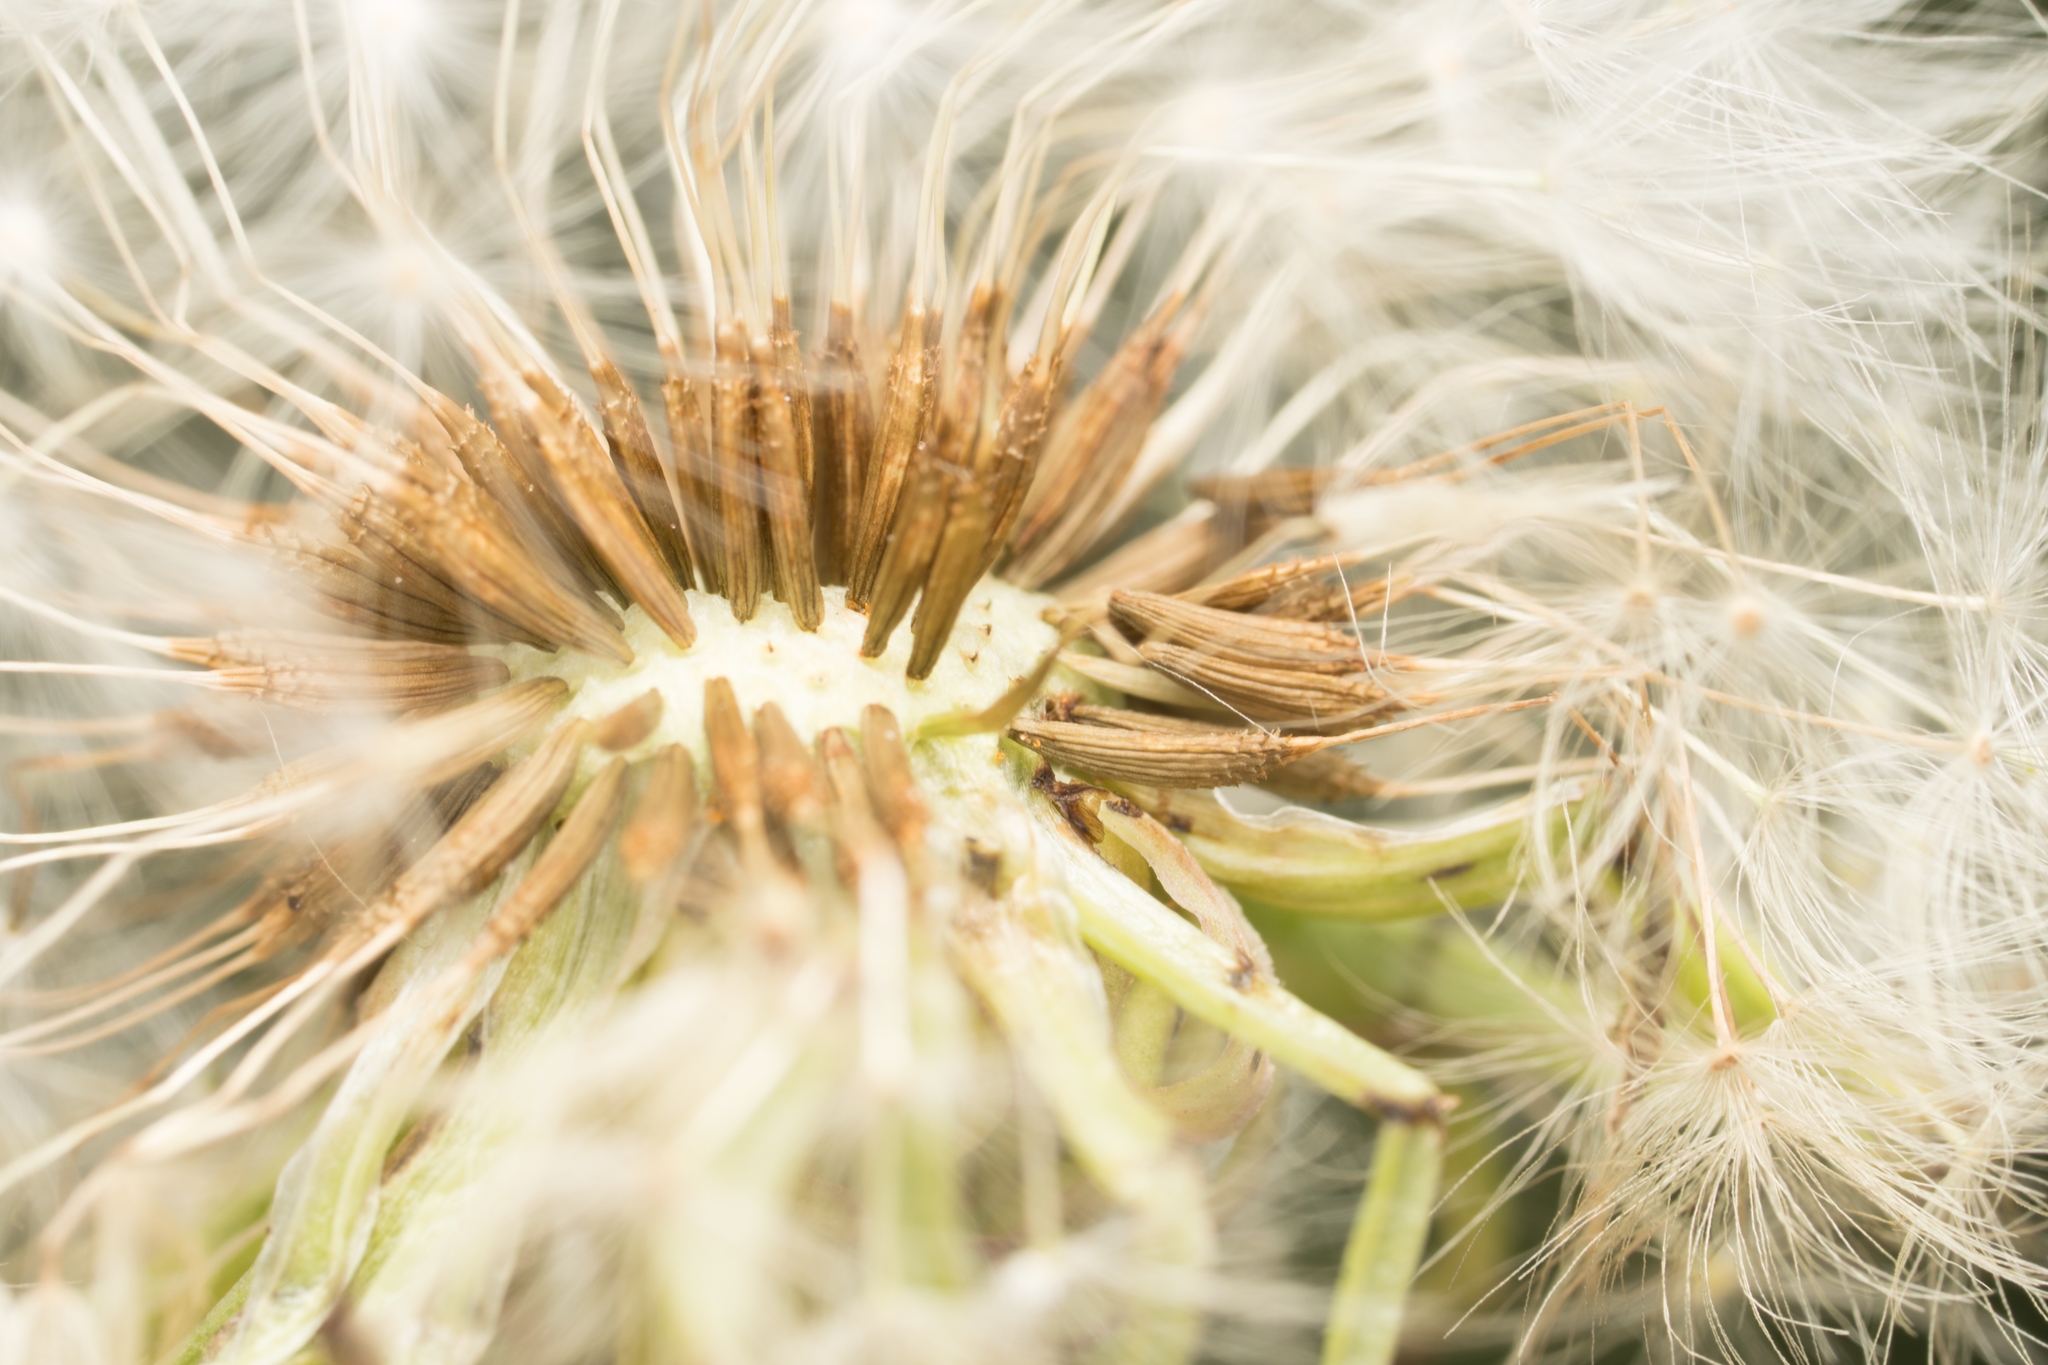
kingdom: Plantae
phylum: Tracheophyta
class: Magnoliopsida
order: Asterales
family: Asteraceae
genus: Taraxacum
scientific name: Taraxacum officinale
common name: Common dandelion
